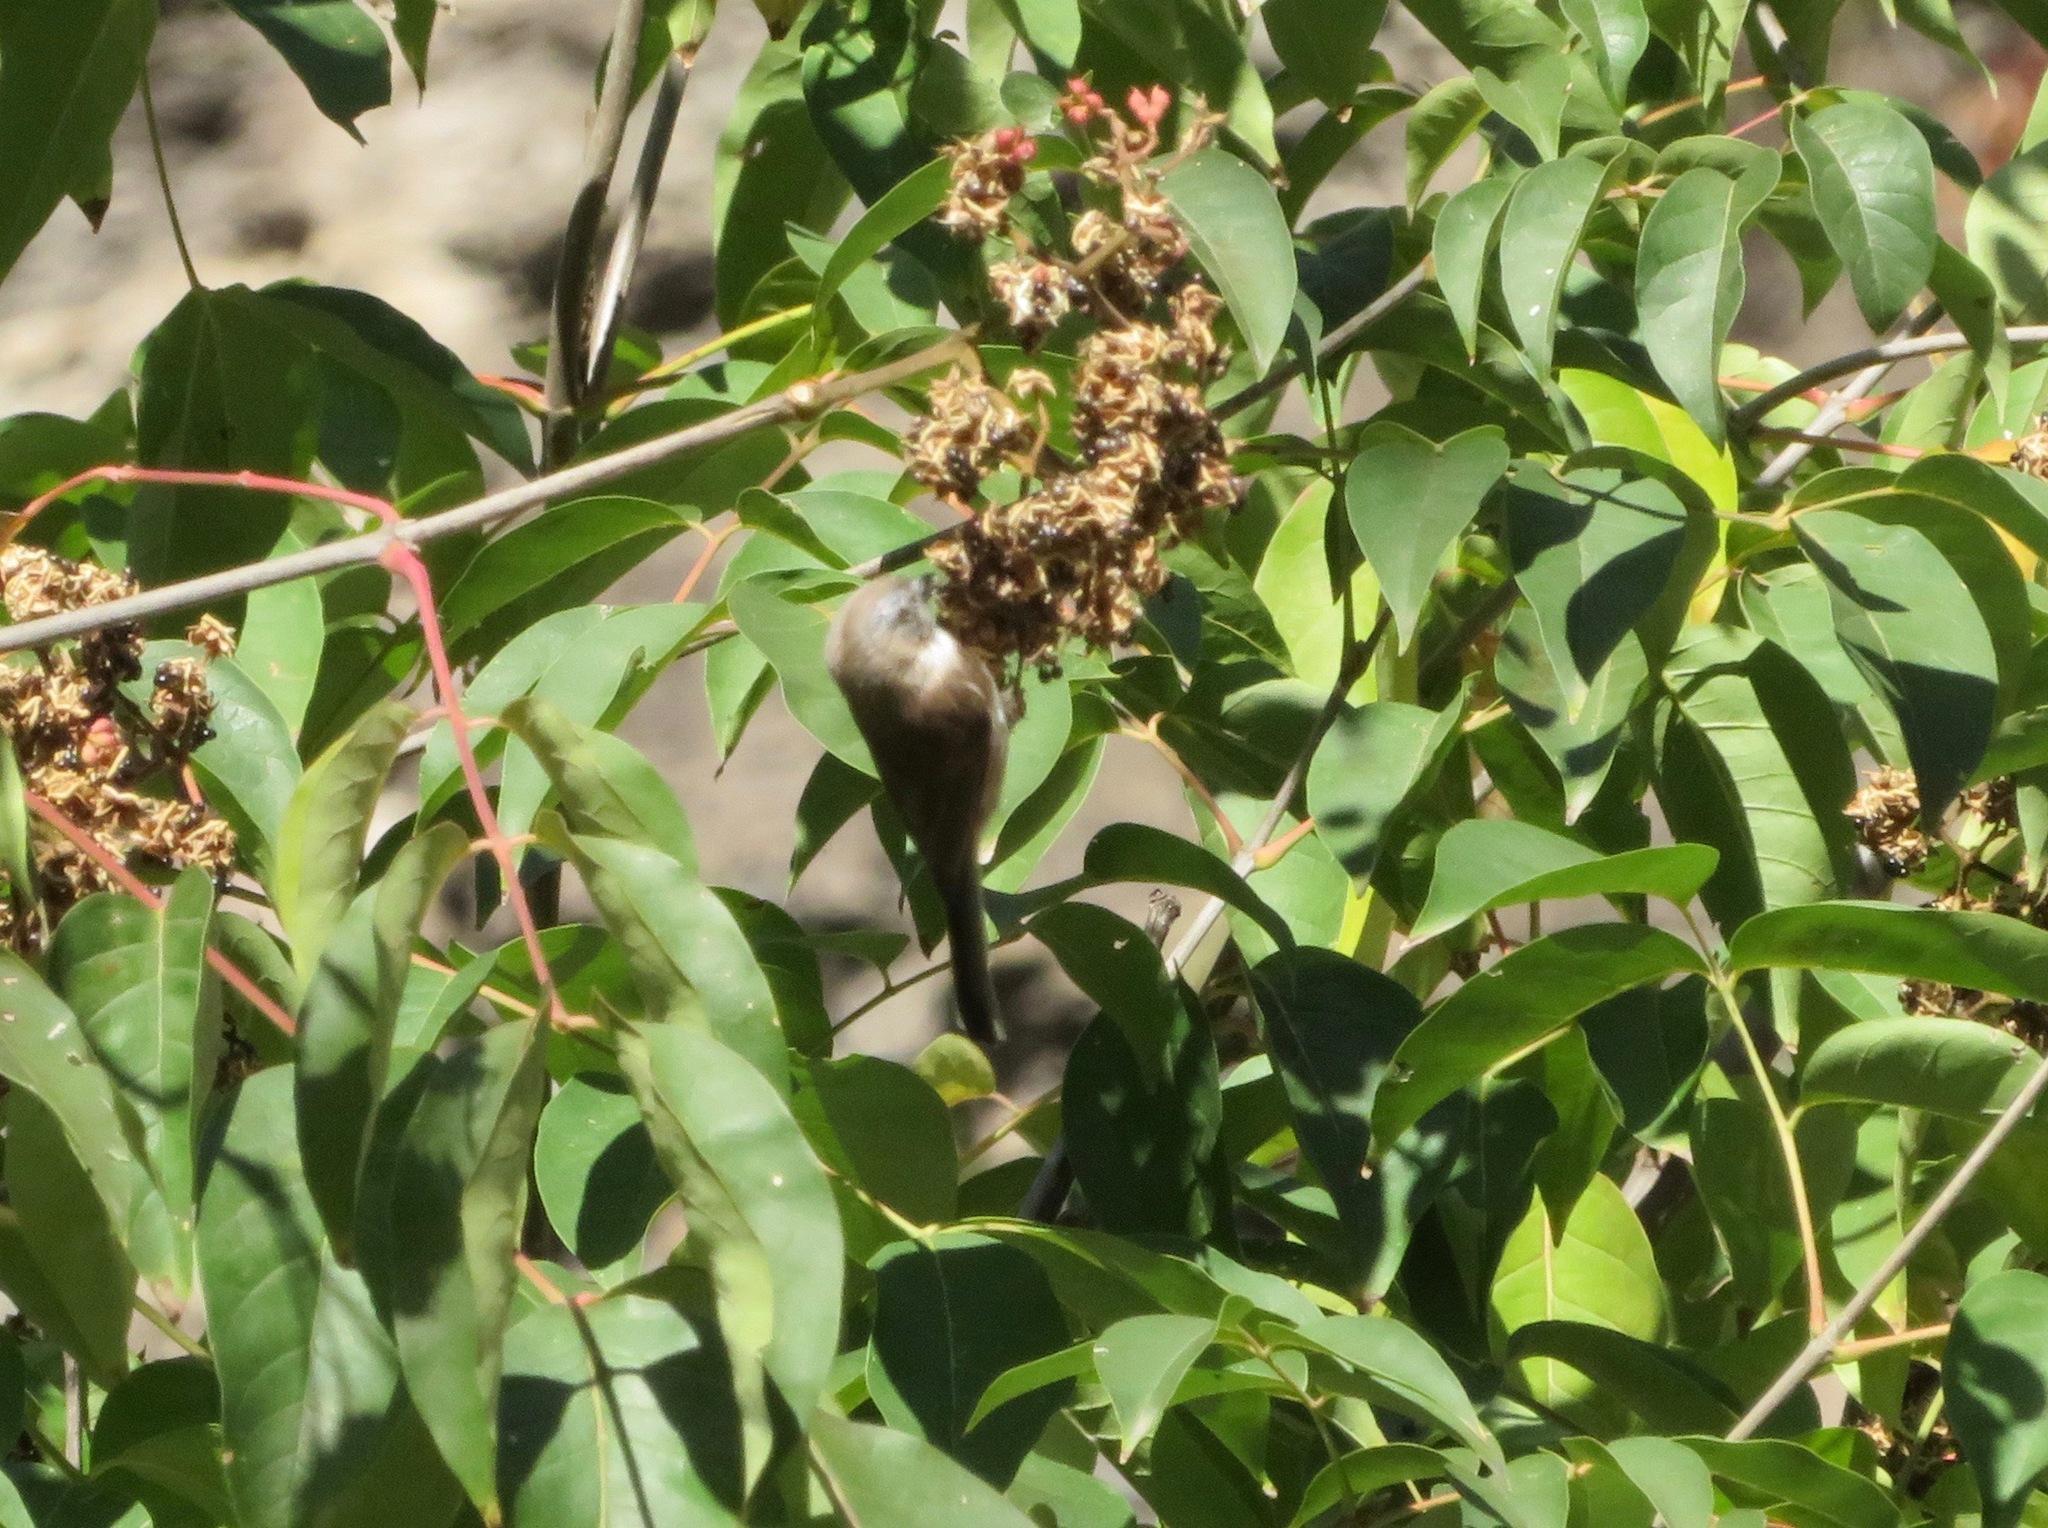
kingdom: Animalia
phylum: Chordata
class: Aves
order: Passeriformes
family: Aegithalidae
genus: Aegithalos
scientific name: Aegithalos fuliginosus
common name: Sooty bushtit
